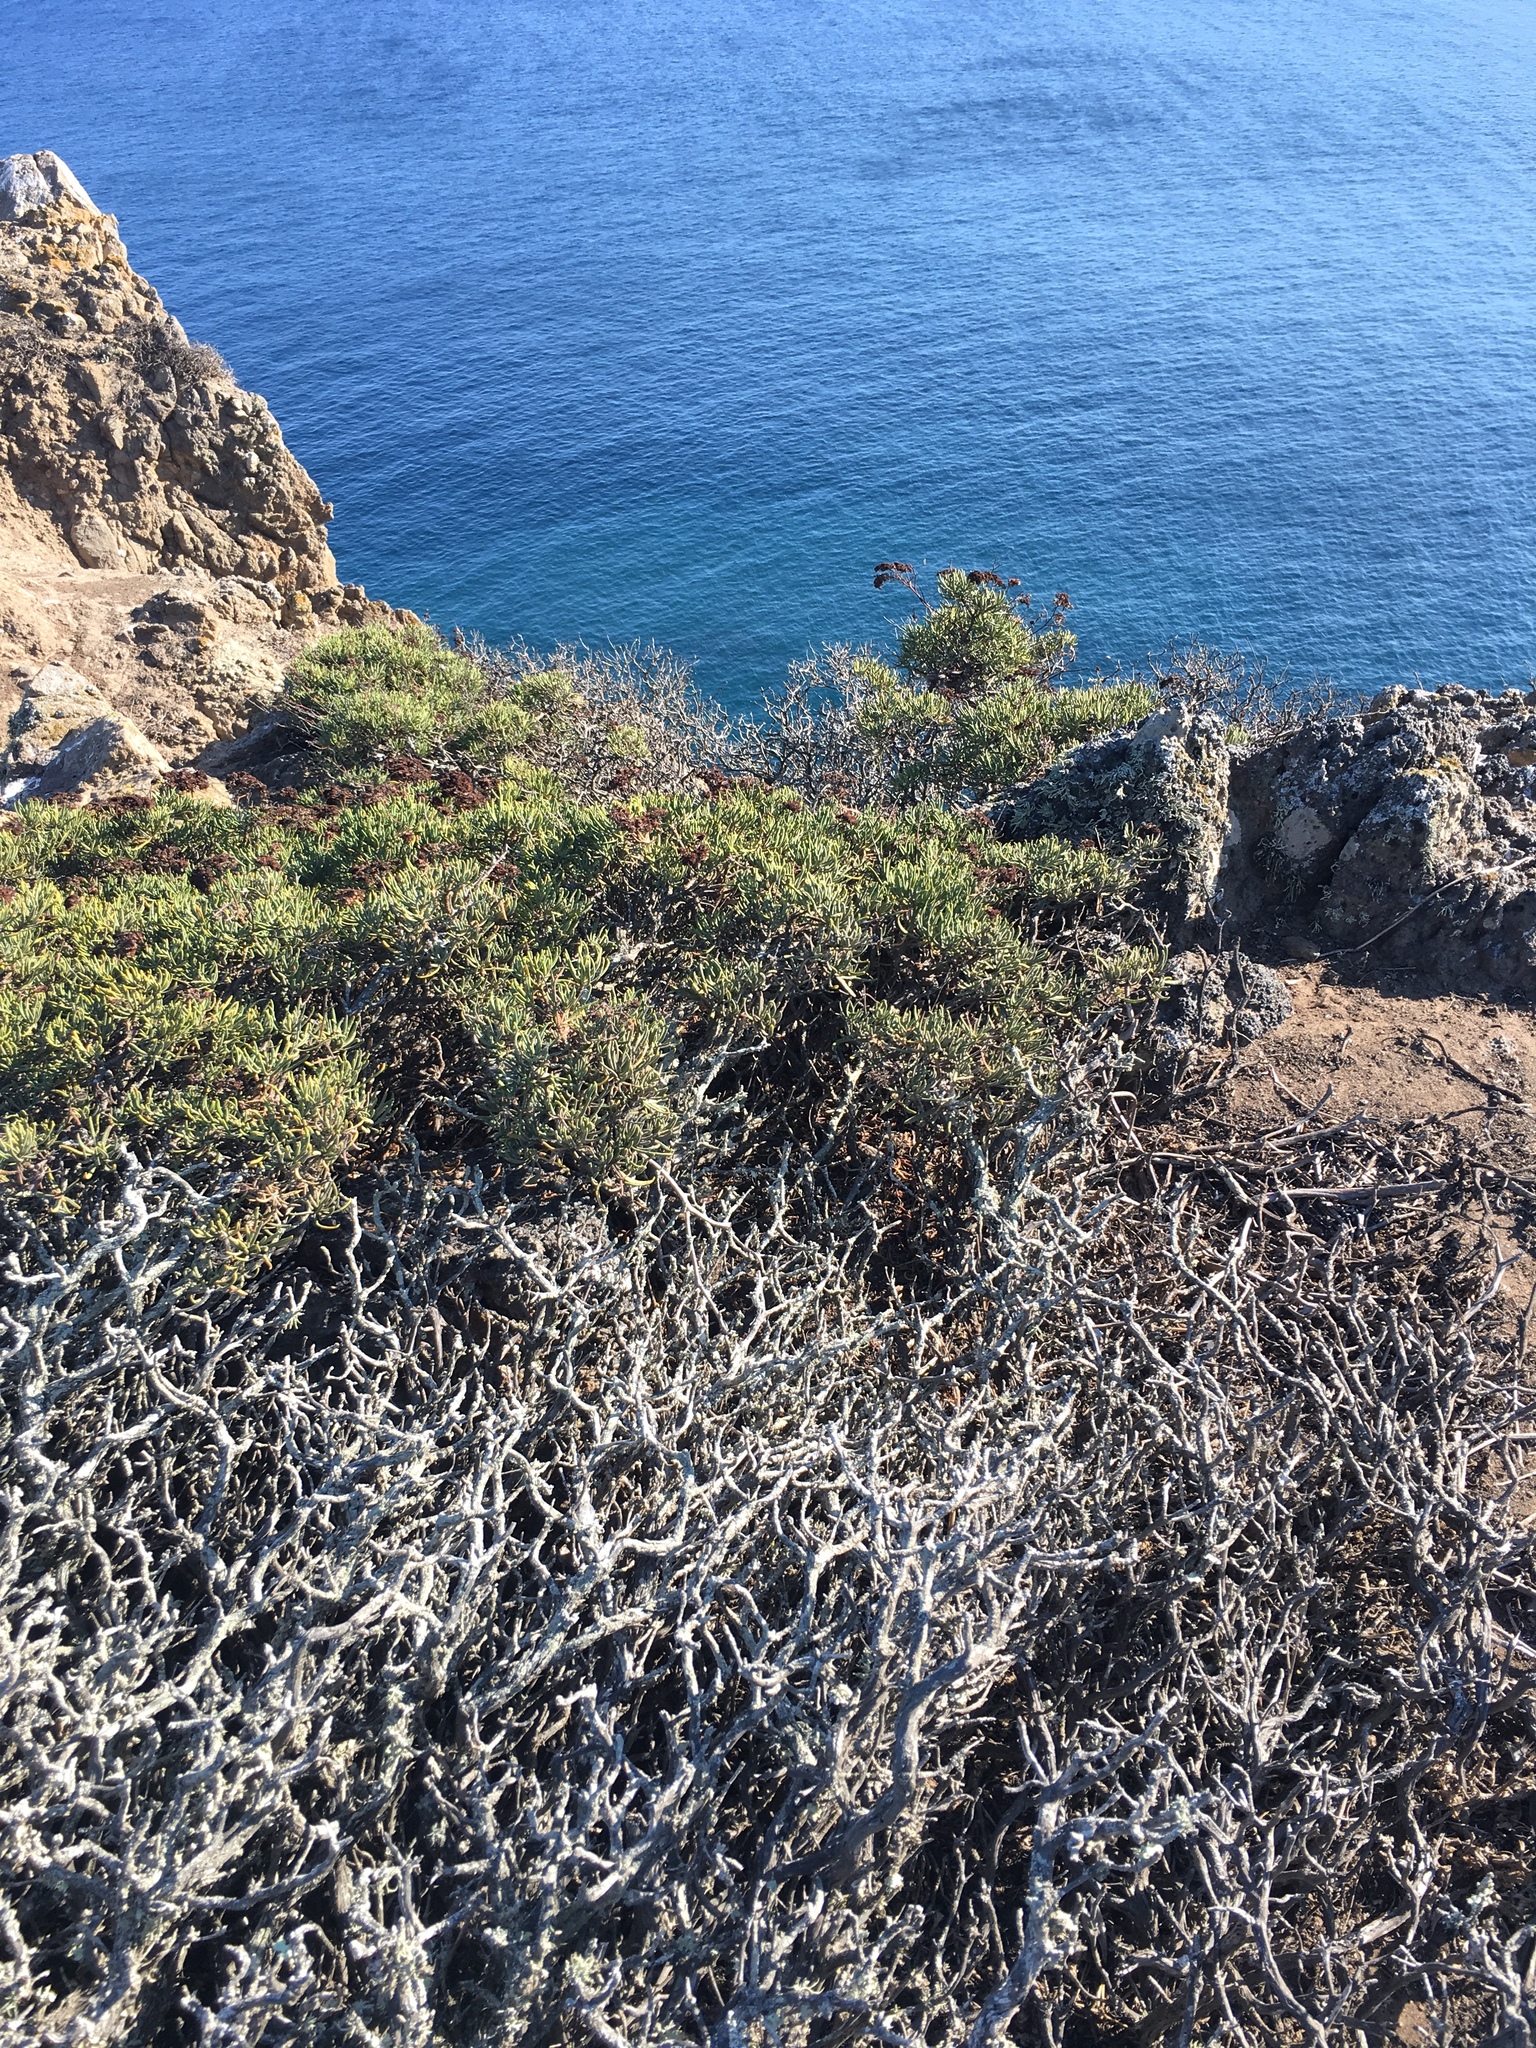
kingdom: Plantae
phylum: Tracheophyta
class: Magnoliopsida
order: Caryophyllales
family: Polygonaceae
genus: Eriogonum
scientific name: Eriogonum arborescens
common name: Island buckwheat
